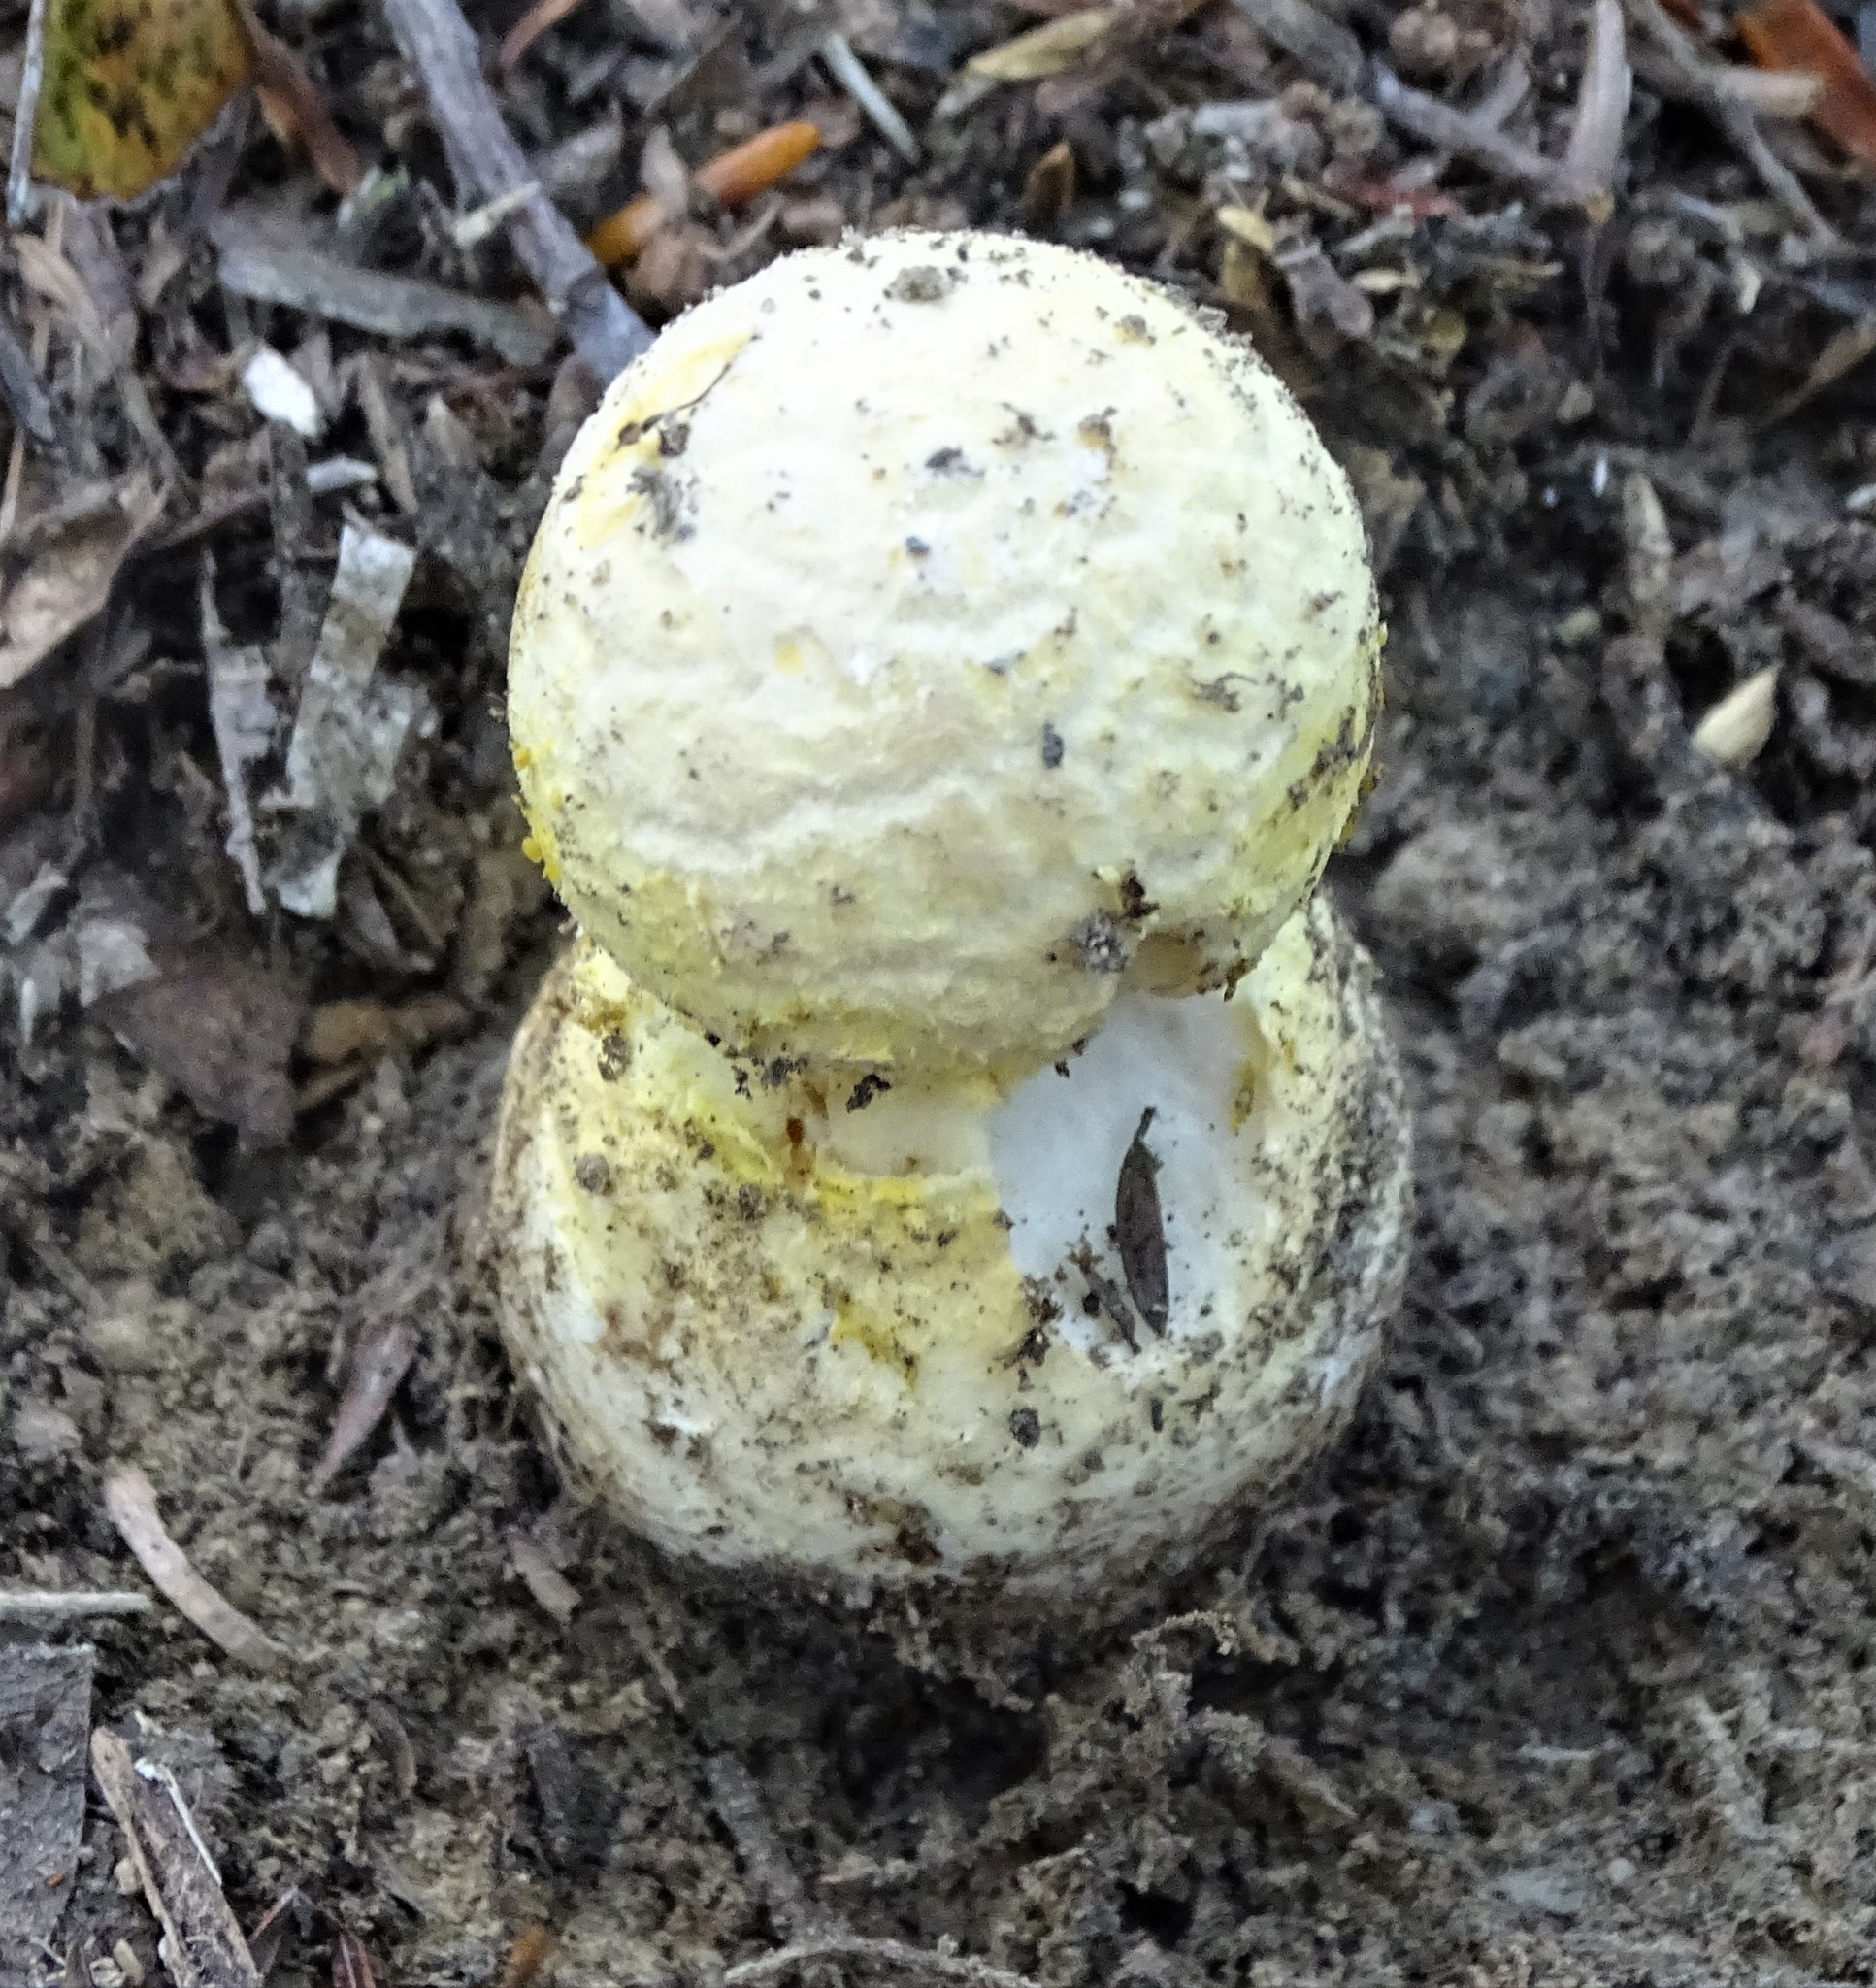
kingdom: Fungi
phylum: Basidiomycota
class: Agaricomycetes
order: Agaricales
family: Amanitaceae
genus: Amanita
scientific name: Amanita muscaria
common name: Fly agaric
